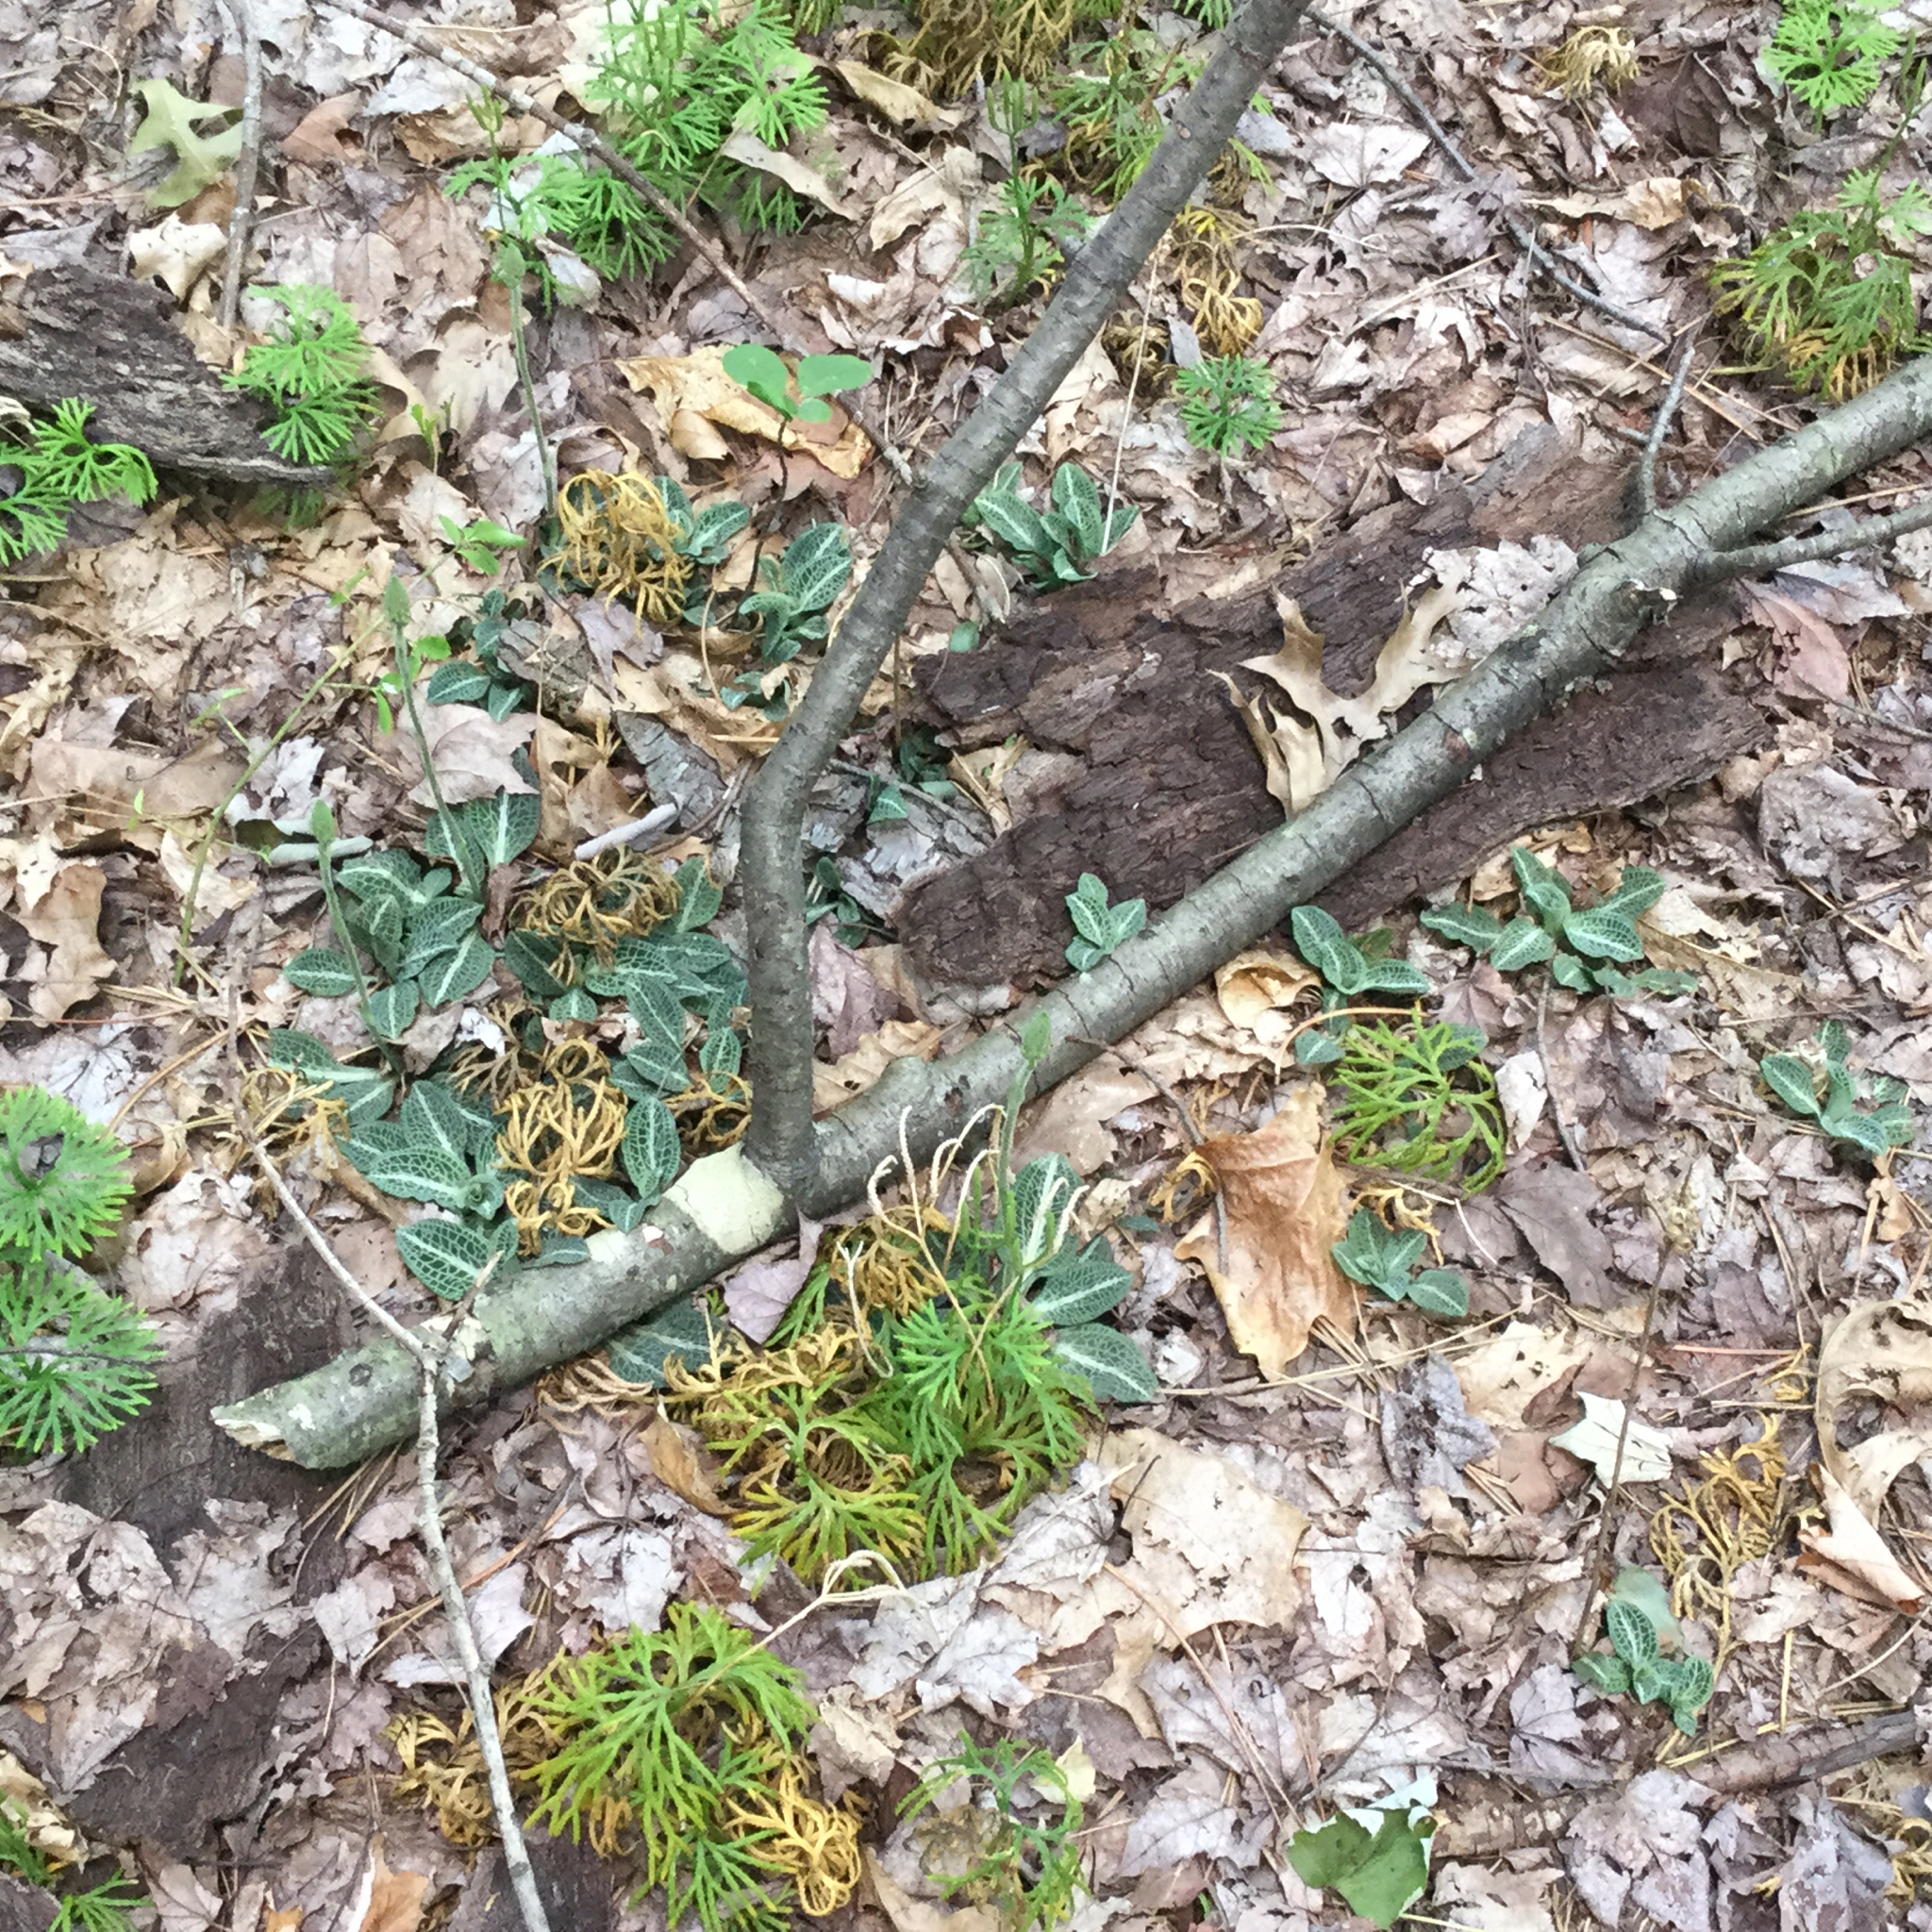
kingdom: Plantae
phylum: Tracheophyta
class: Liliopsida
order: Asparagales
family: Orchidaceae
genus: Goodyera
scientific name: Goodyera pubescens
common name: Downy rattlesnake-plantain
